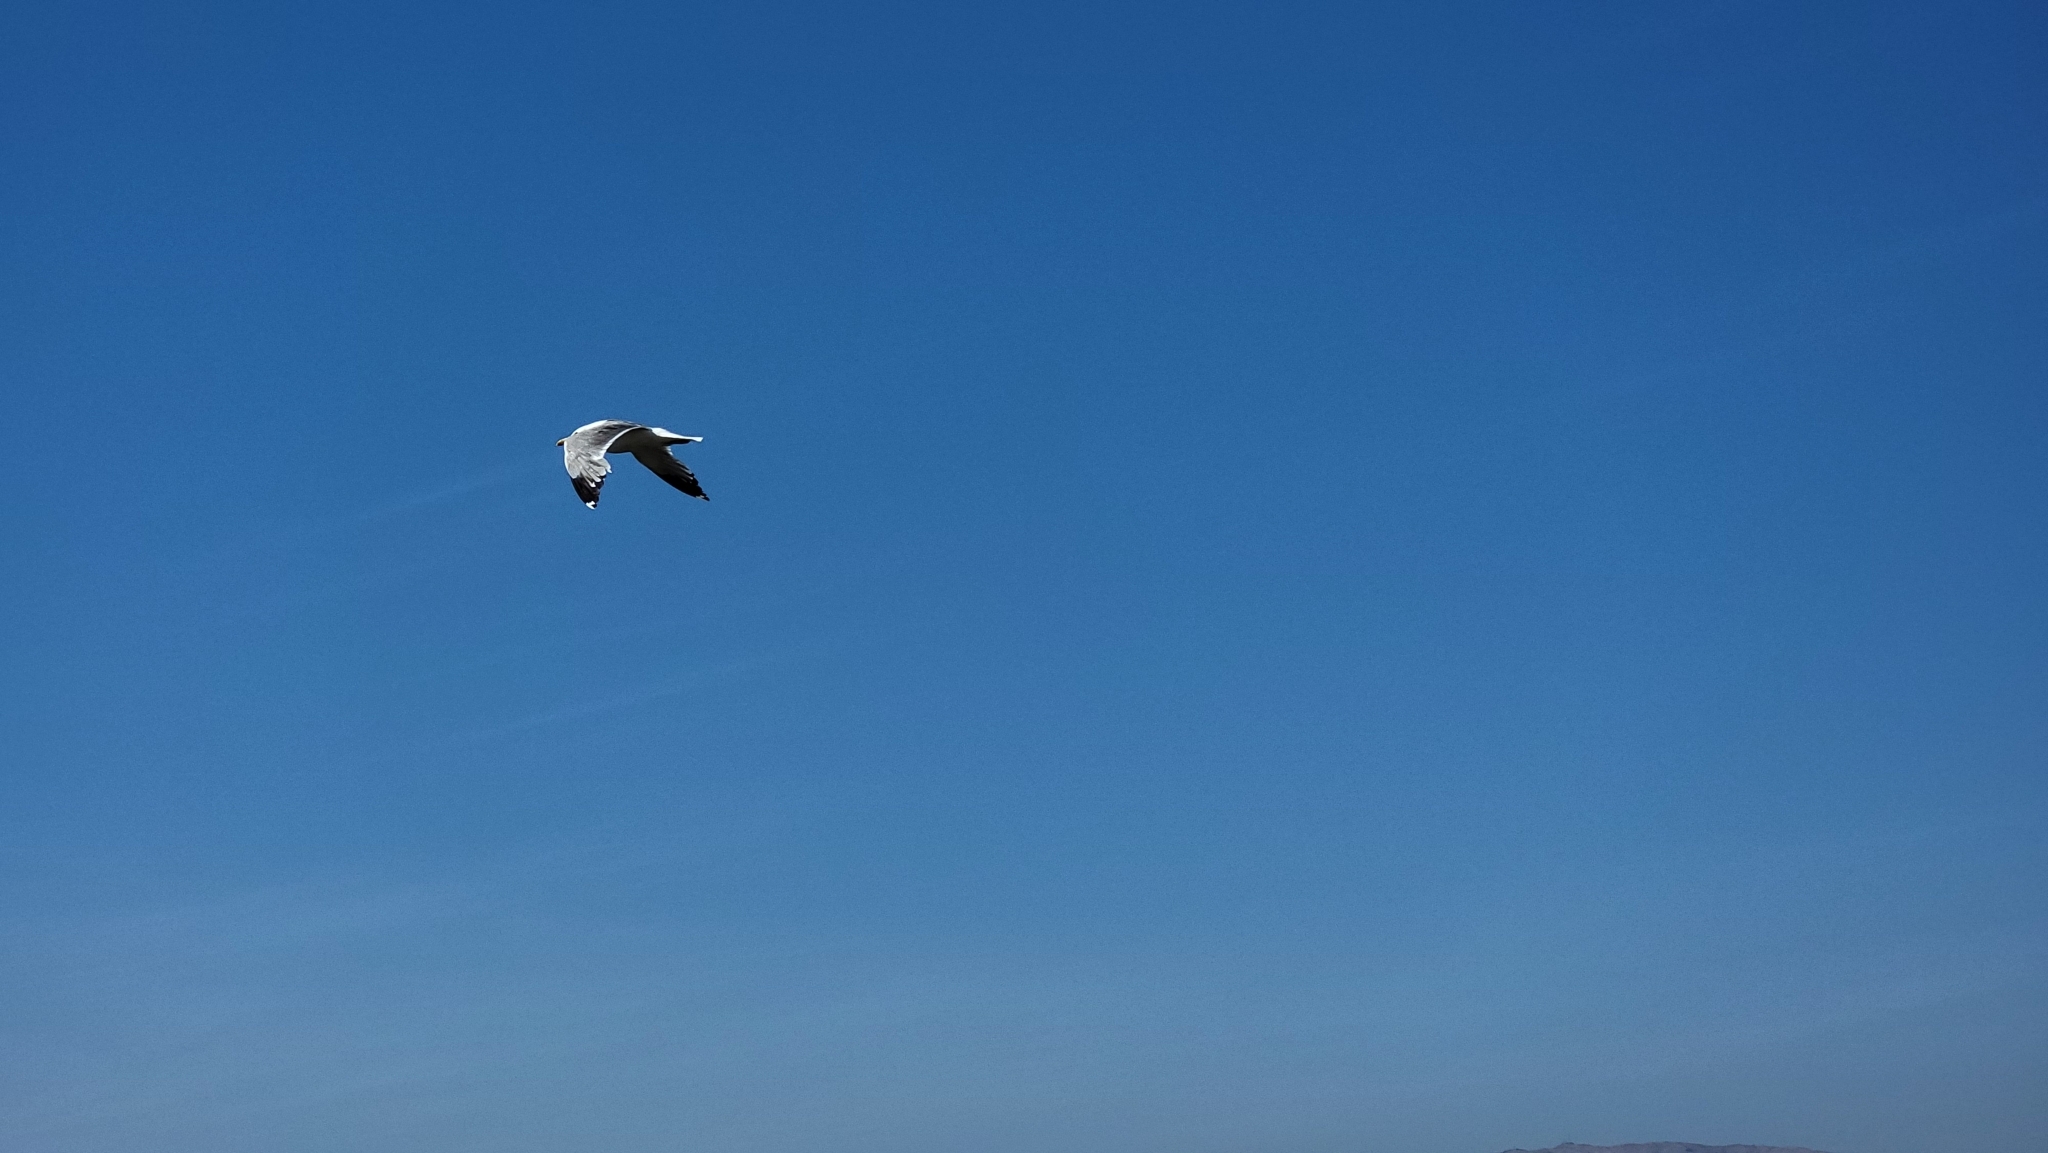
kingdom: Animalia
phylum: Chordata
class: Aves
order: Charadriiformes
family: Laridae
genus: Larus
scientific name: Larus californicus
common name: California gull
